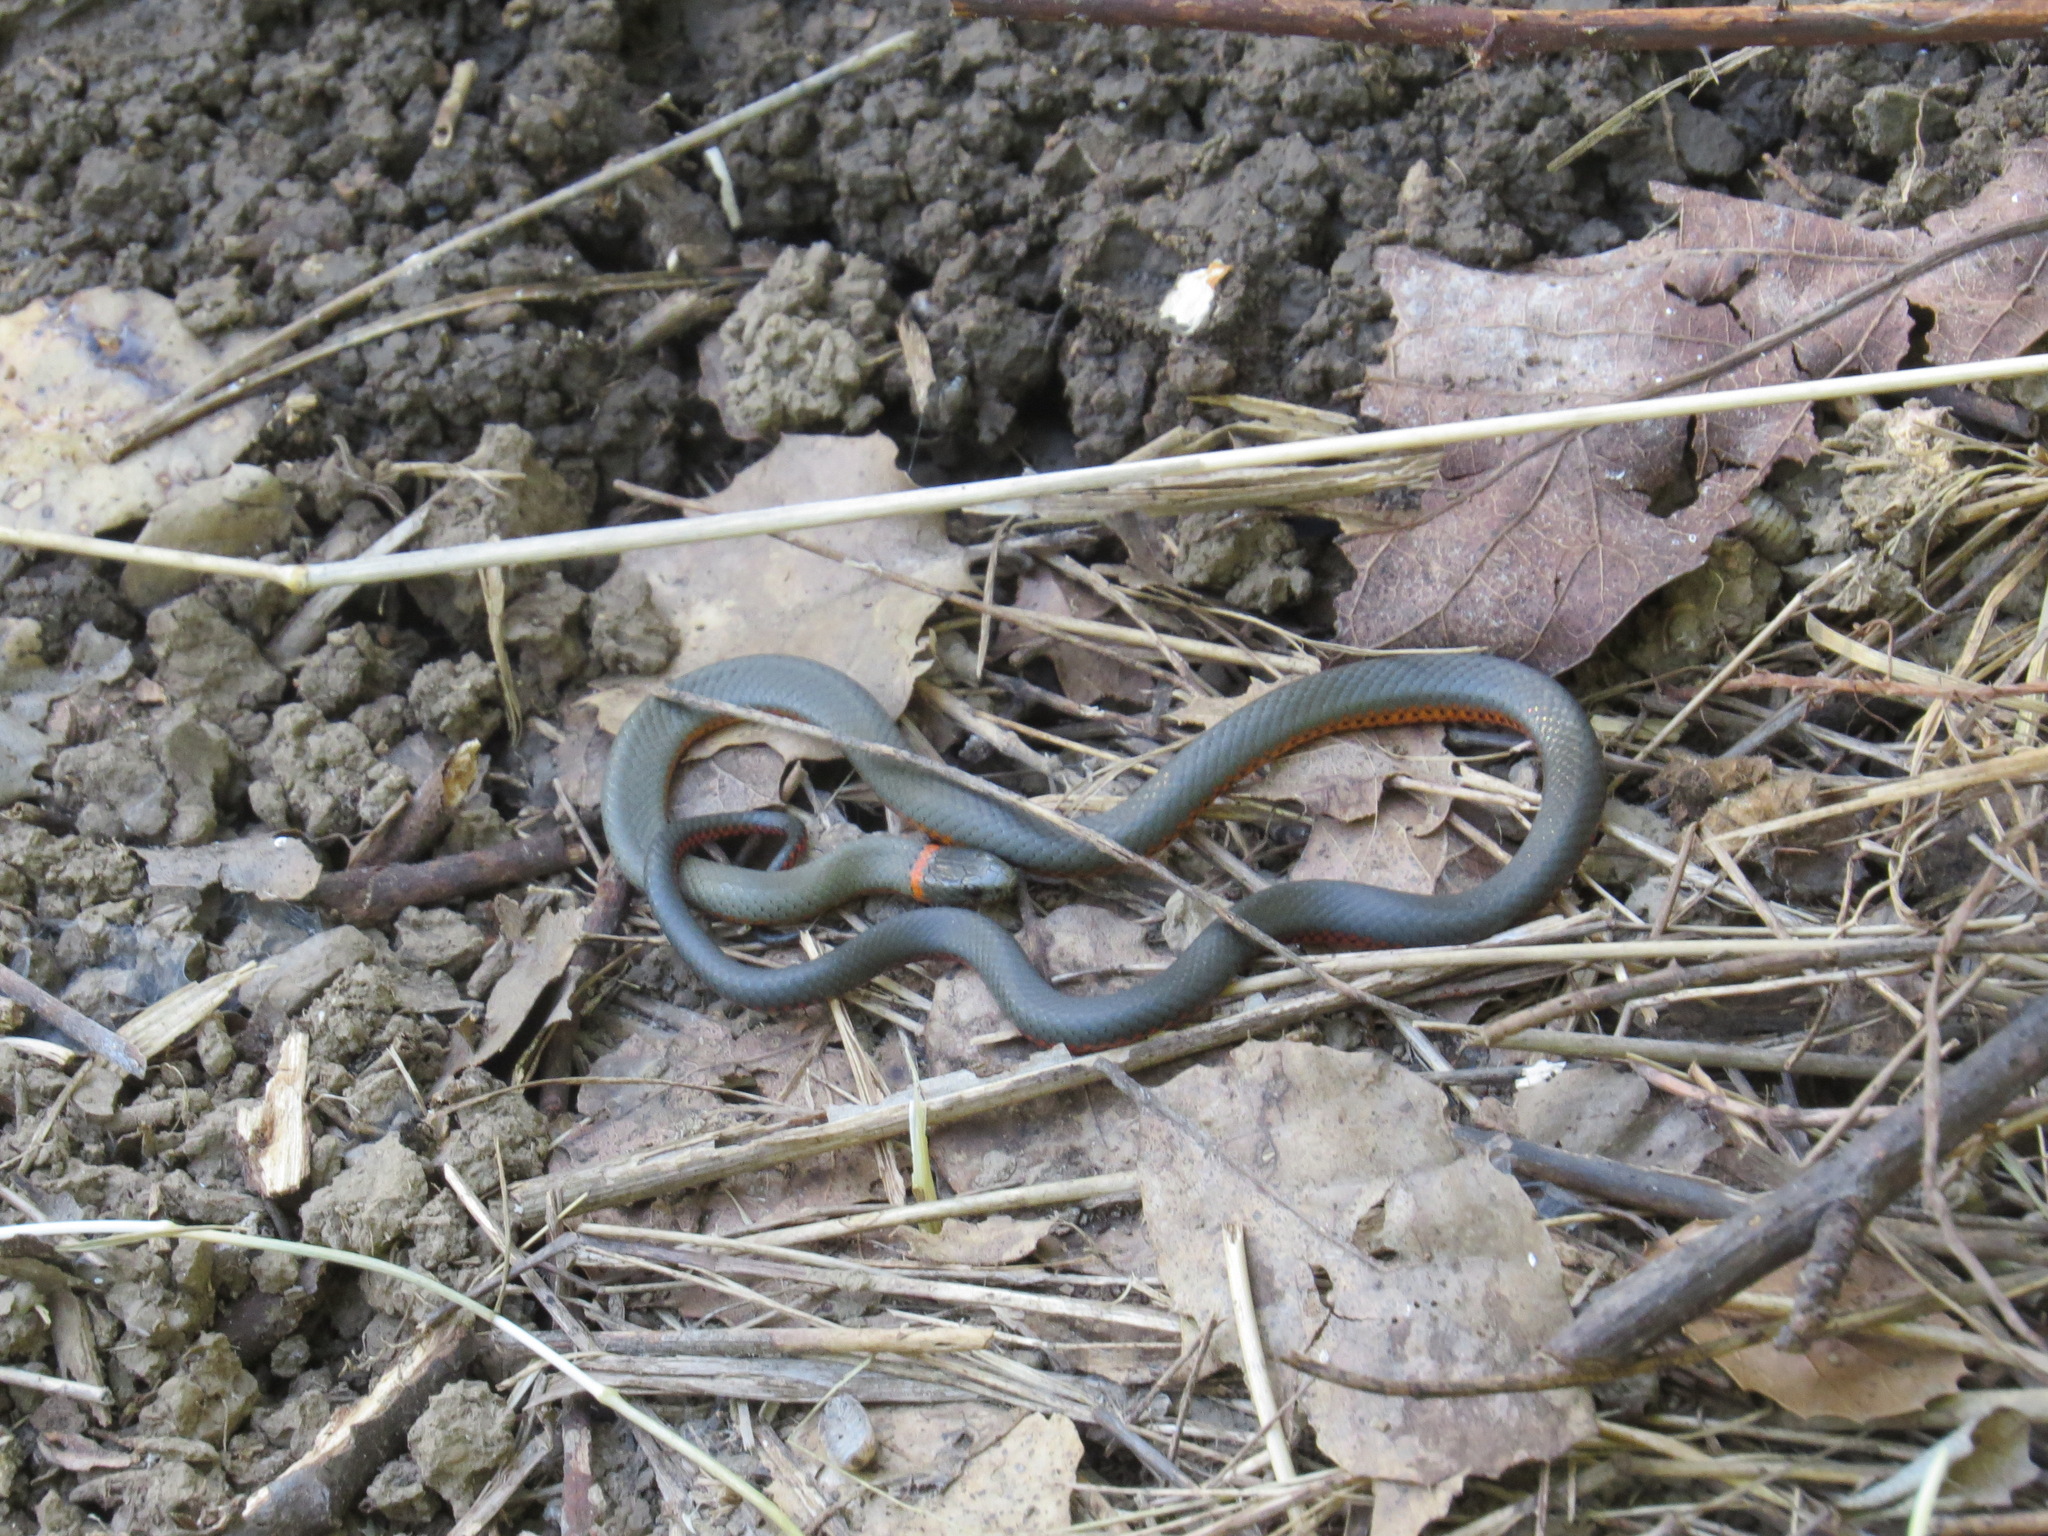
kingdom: Animalia
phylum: Chordata
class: Squamata
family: Colubridae
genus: Diadophis
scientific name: Diadophis punctatus
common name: Ringneck snake
